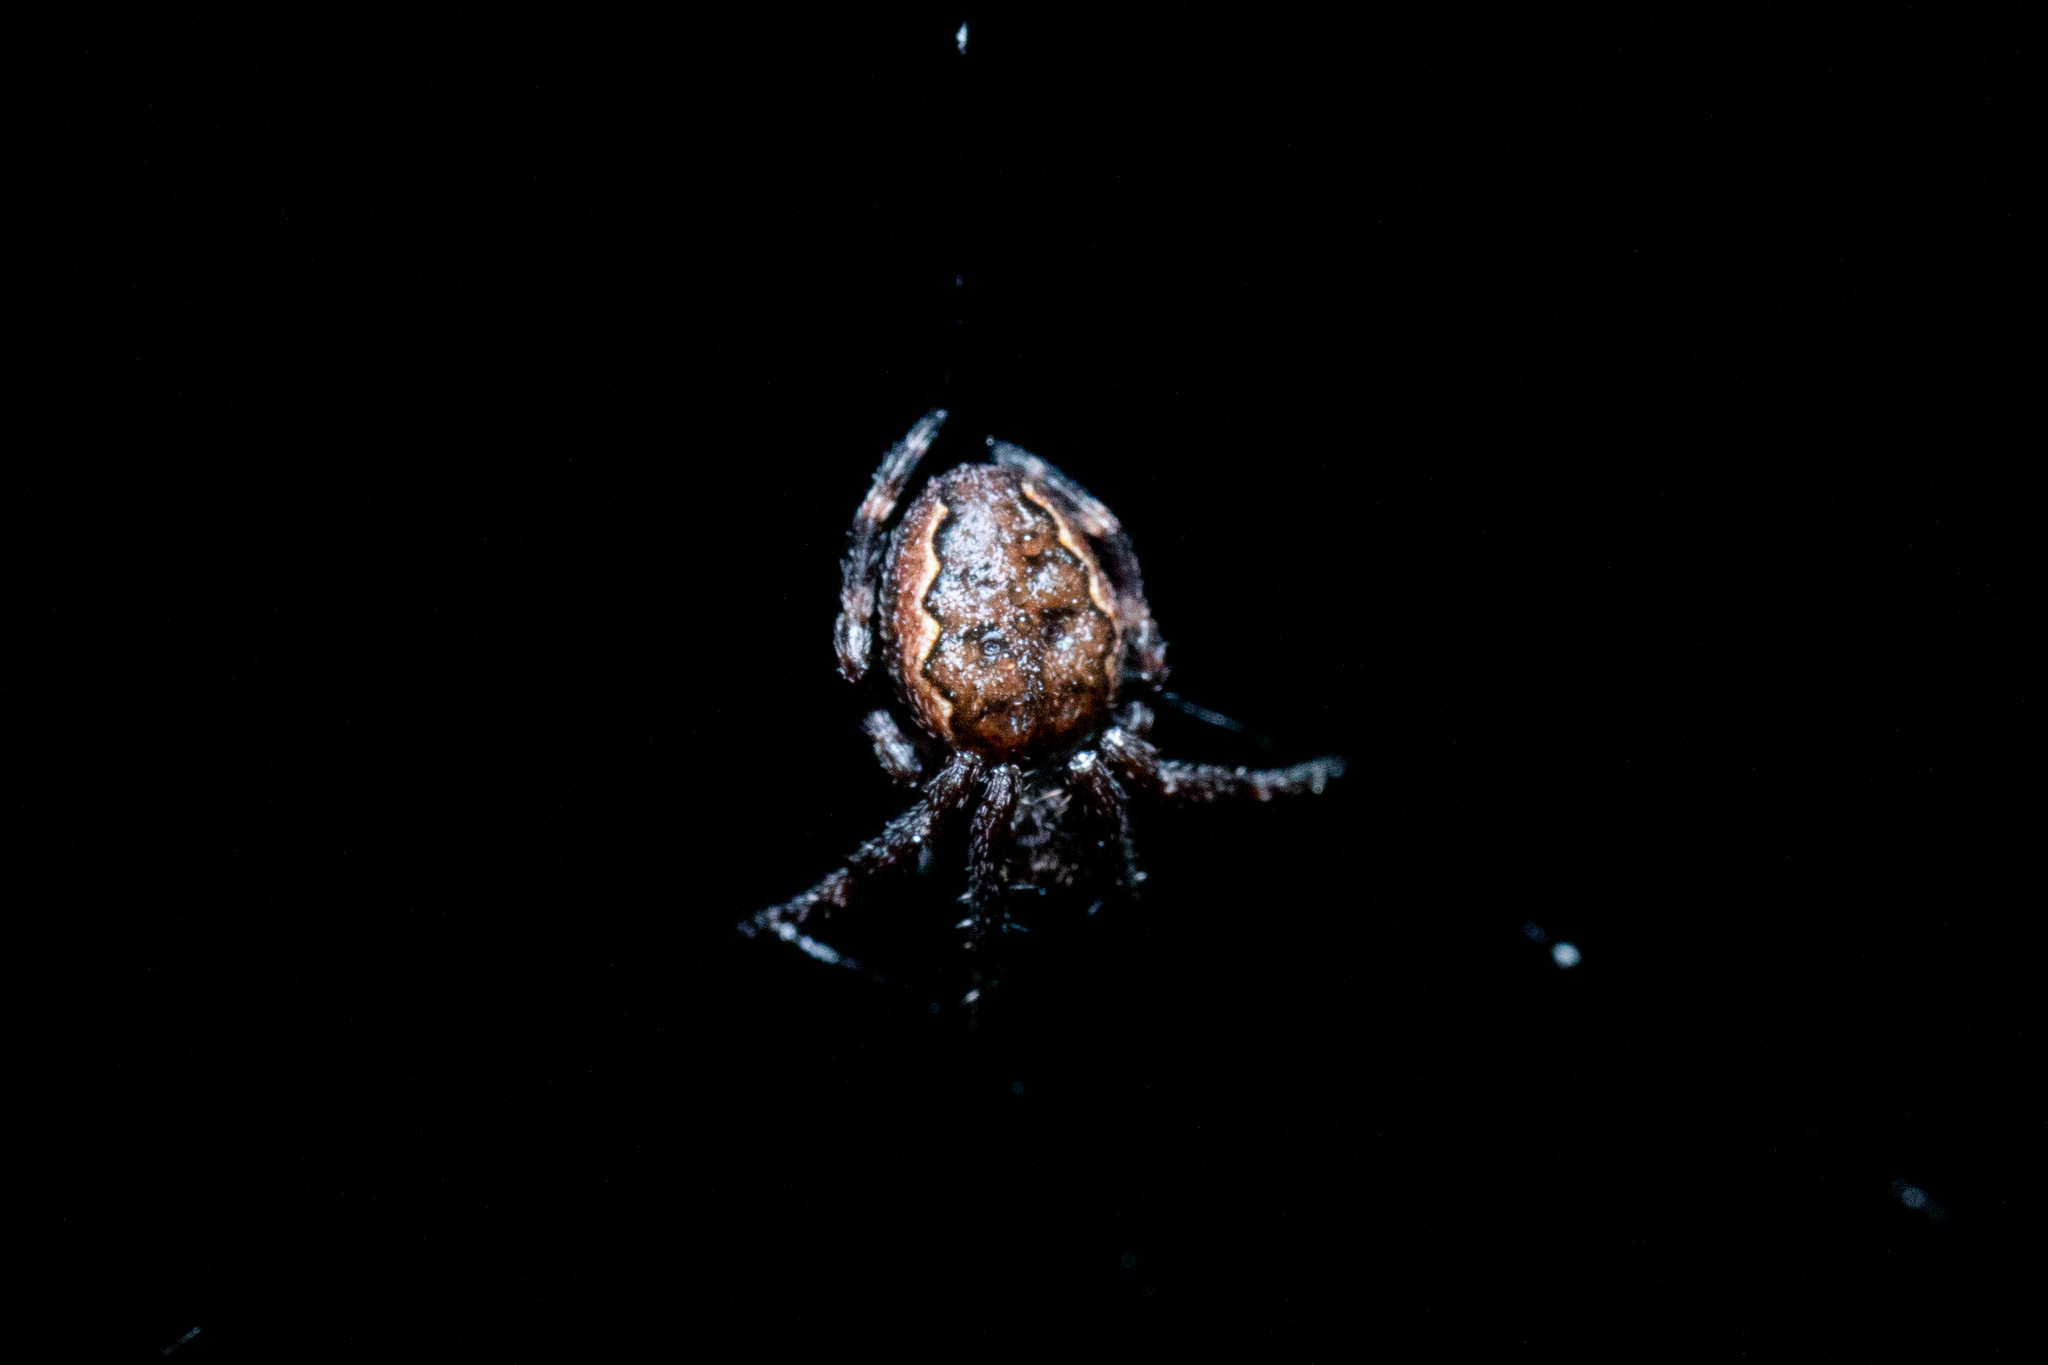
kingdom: Animalia
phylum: Arthropoda
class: Arachnida
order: Araneae
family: Araneidae
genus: Nuctenea
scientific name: Nuctenea umbratica
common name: Toad spider
